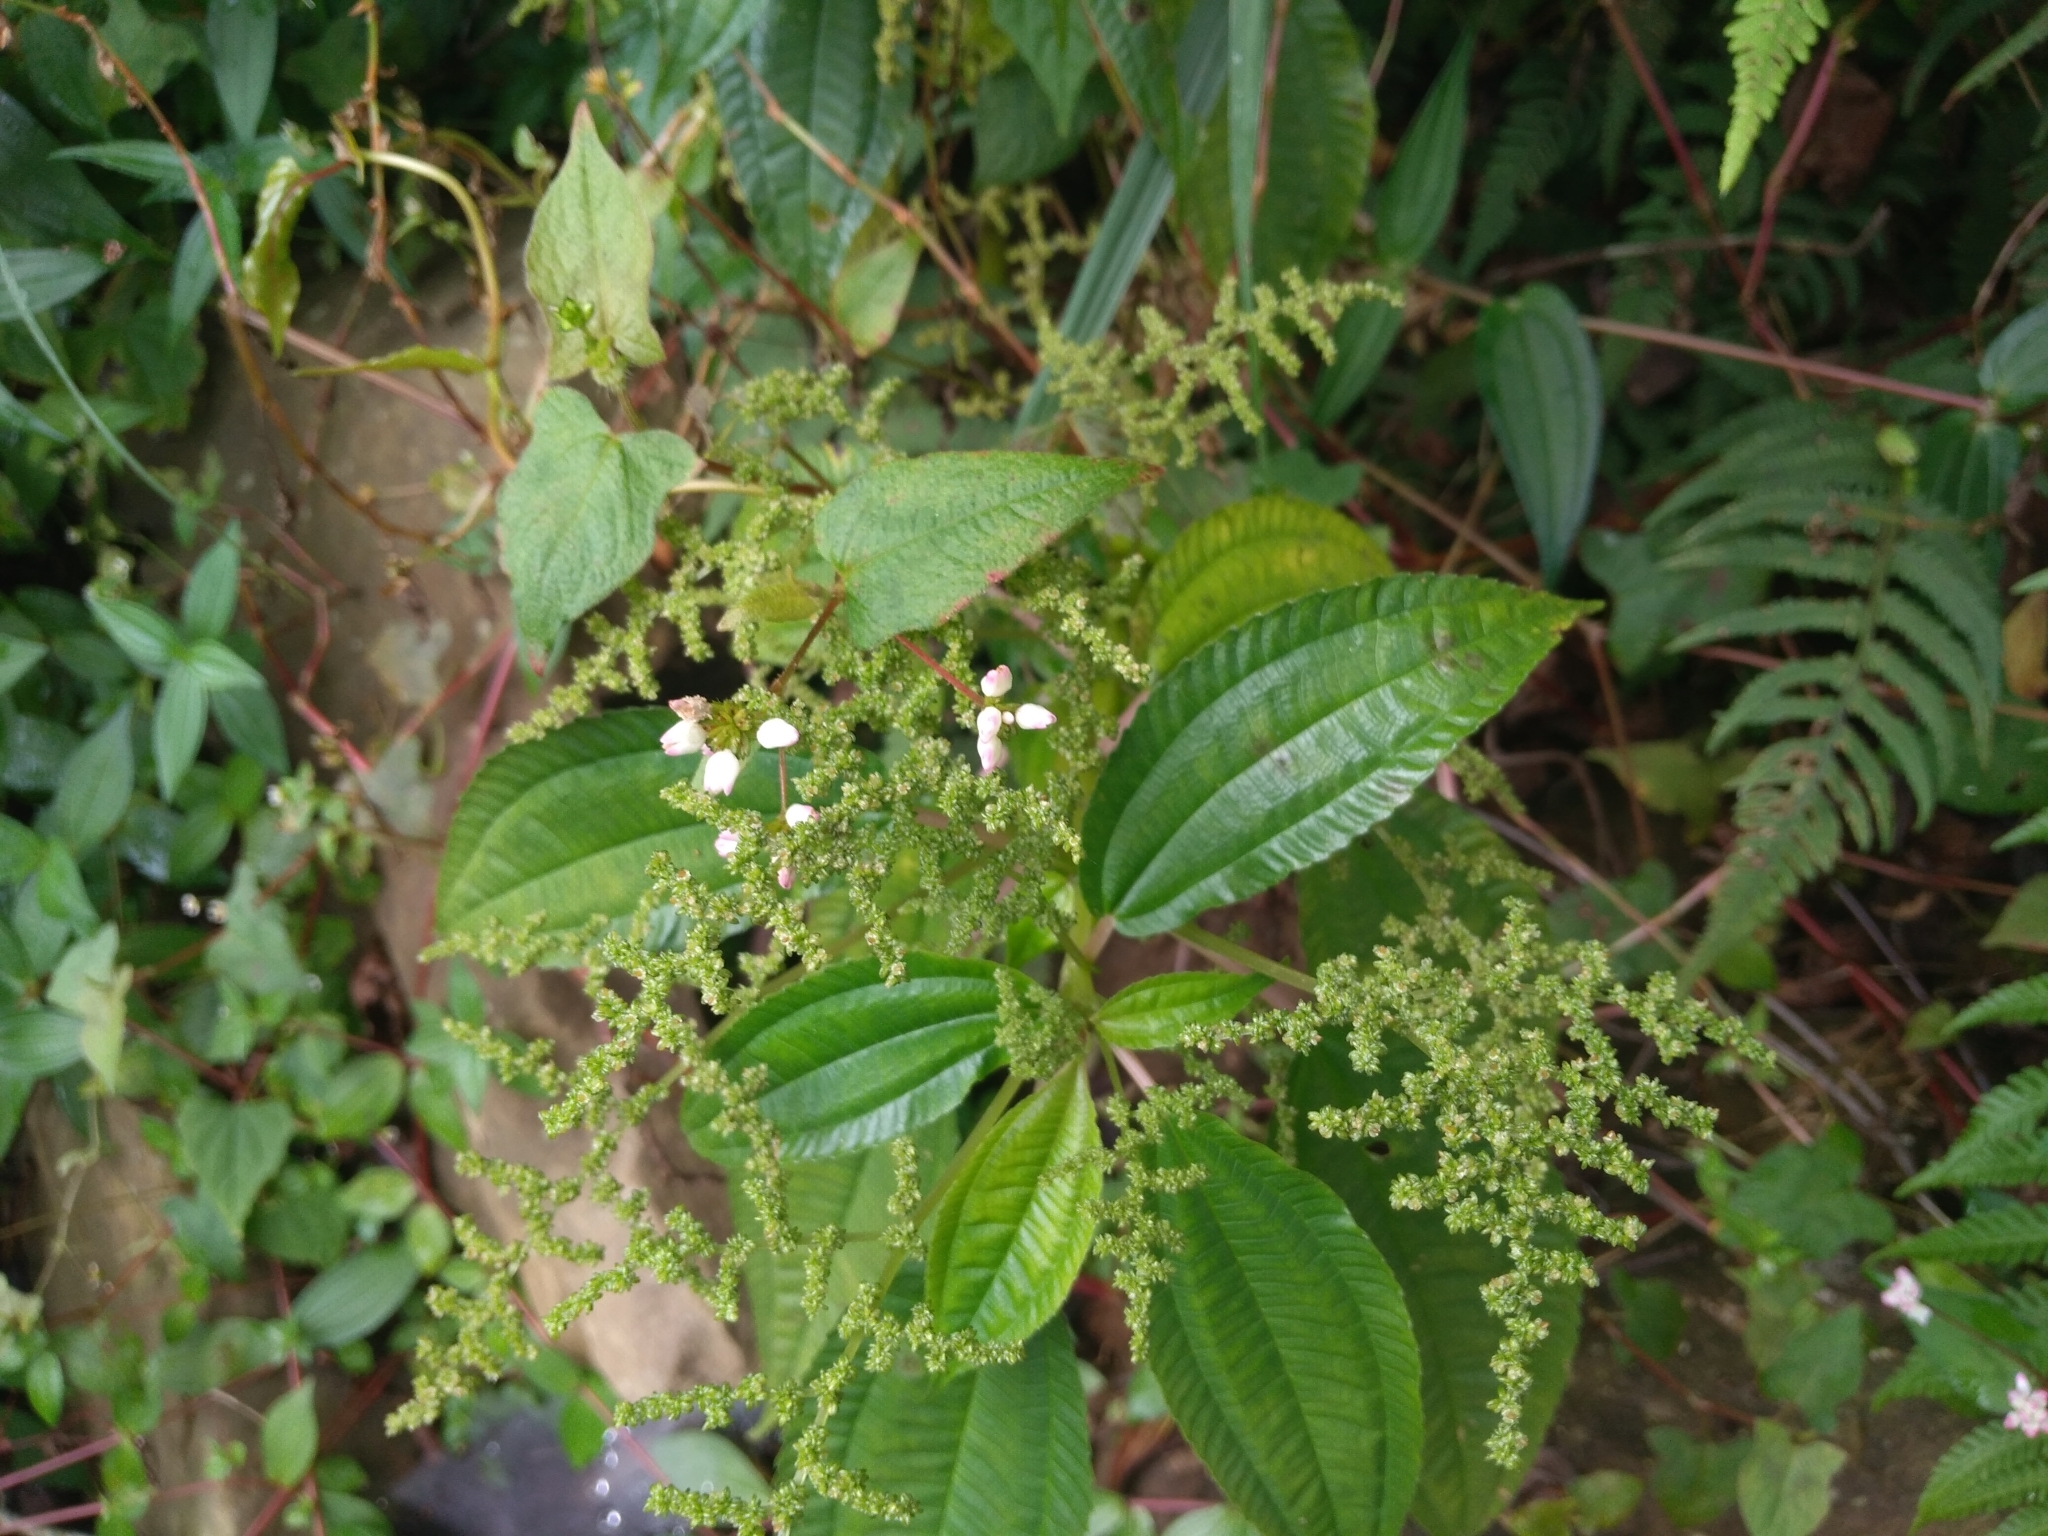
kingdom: Plantae
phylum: Tracheophyta
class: Magnoliopsida
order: Rosales
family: Urticaceae
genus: Pilea
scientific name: Pilea melastomoides
